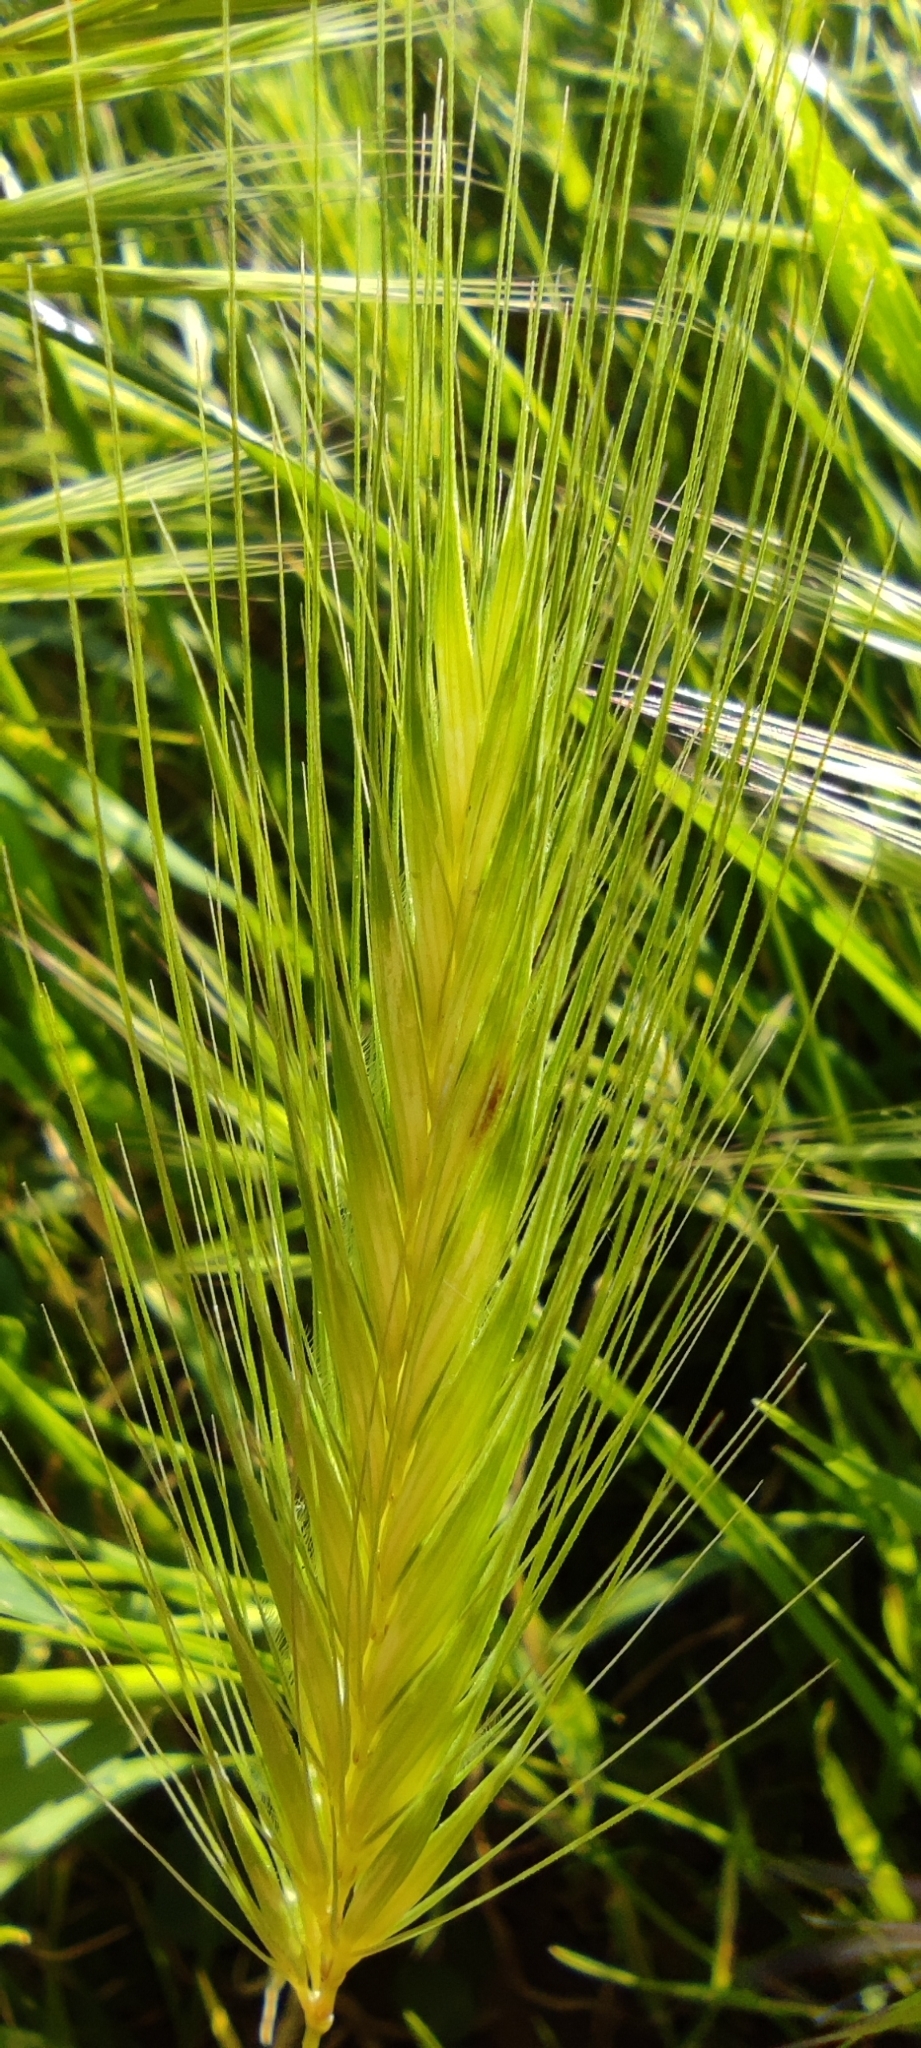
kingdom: Plantae
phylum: Tracheophyta
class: Liliopsida
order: Poales
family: Poaceae
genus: Hordeum
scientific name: Hordeum murinum
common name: Wall barley
